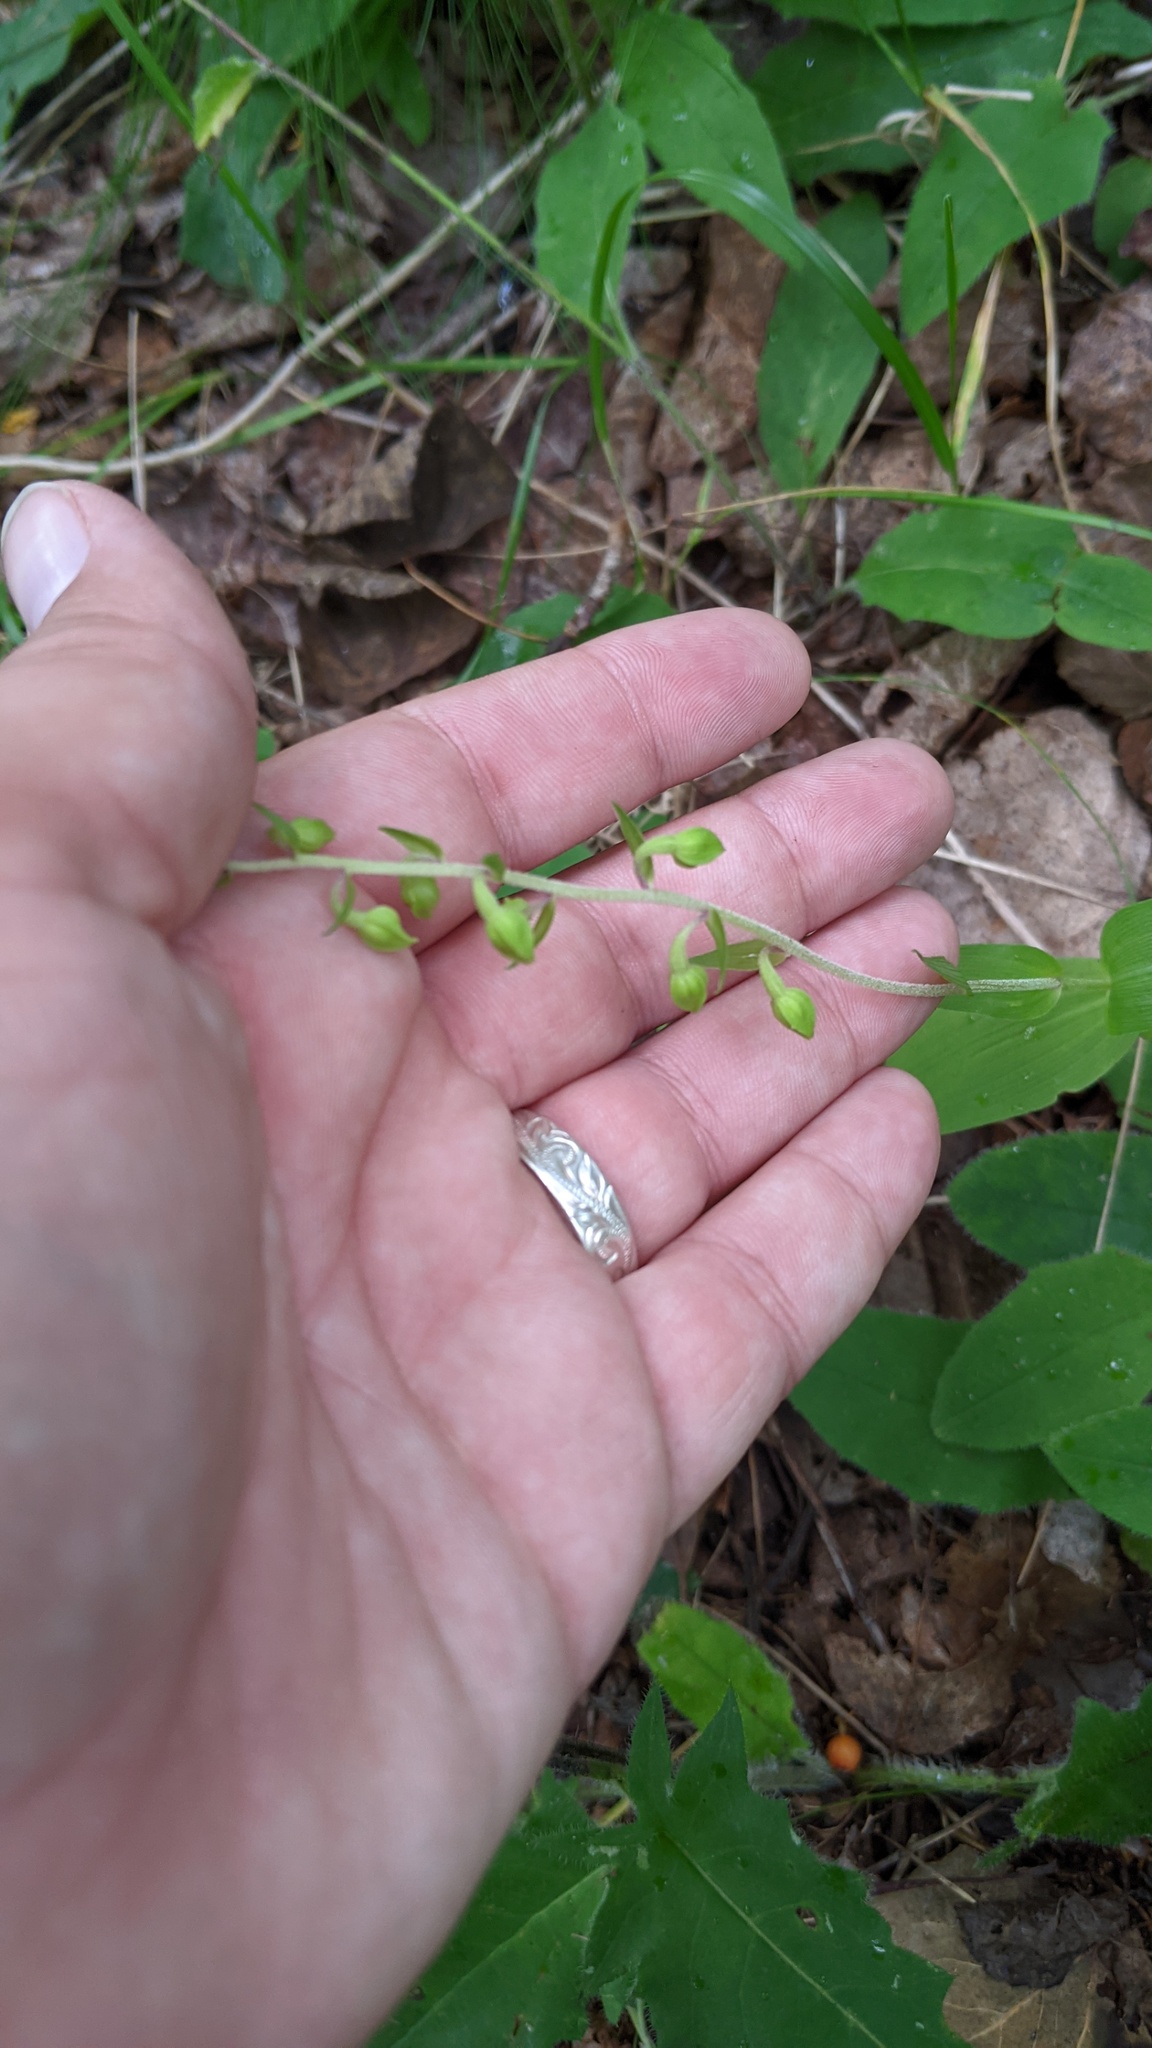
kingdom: Plantae
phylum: Tracheophyta
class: Liliopsida
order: Asparagales
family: Orchidaceae
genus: Epipactis
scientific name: Epipactis helleborine
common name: Broad-leaved helleborine
